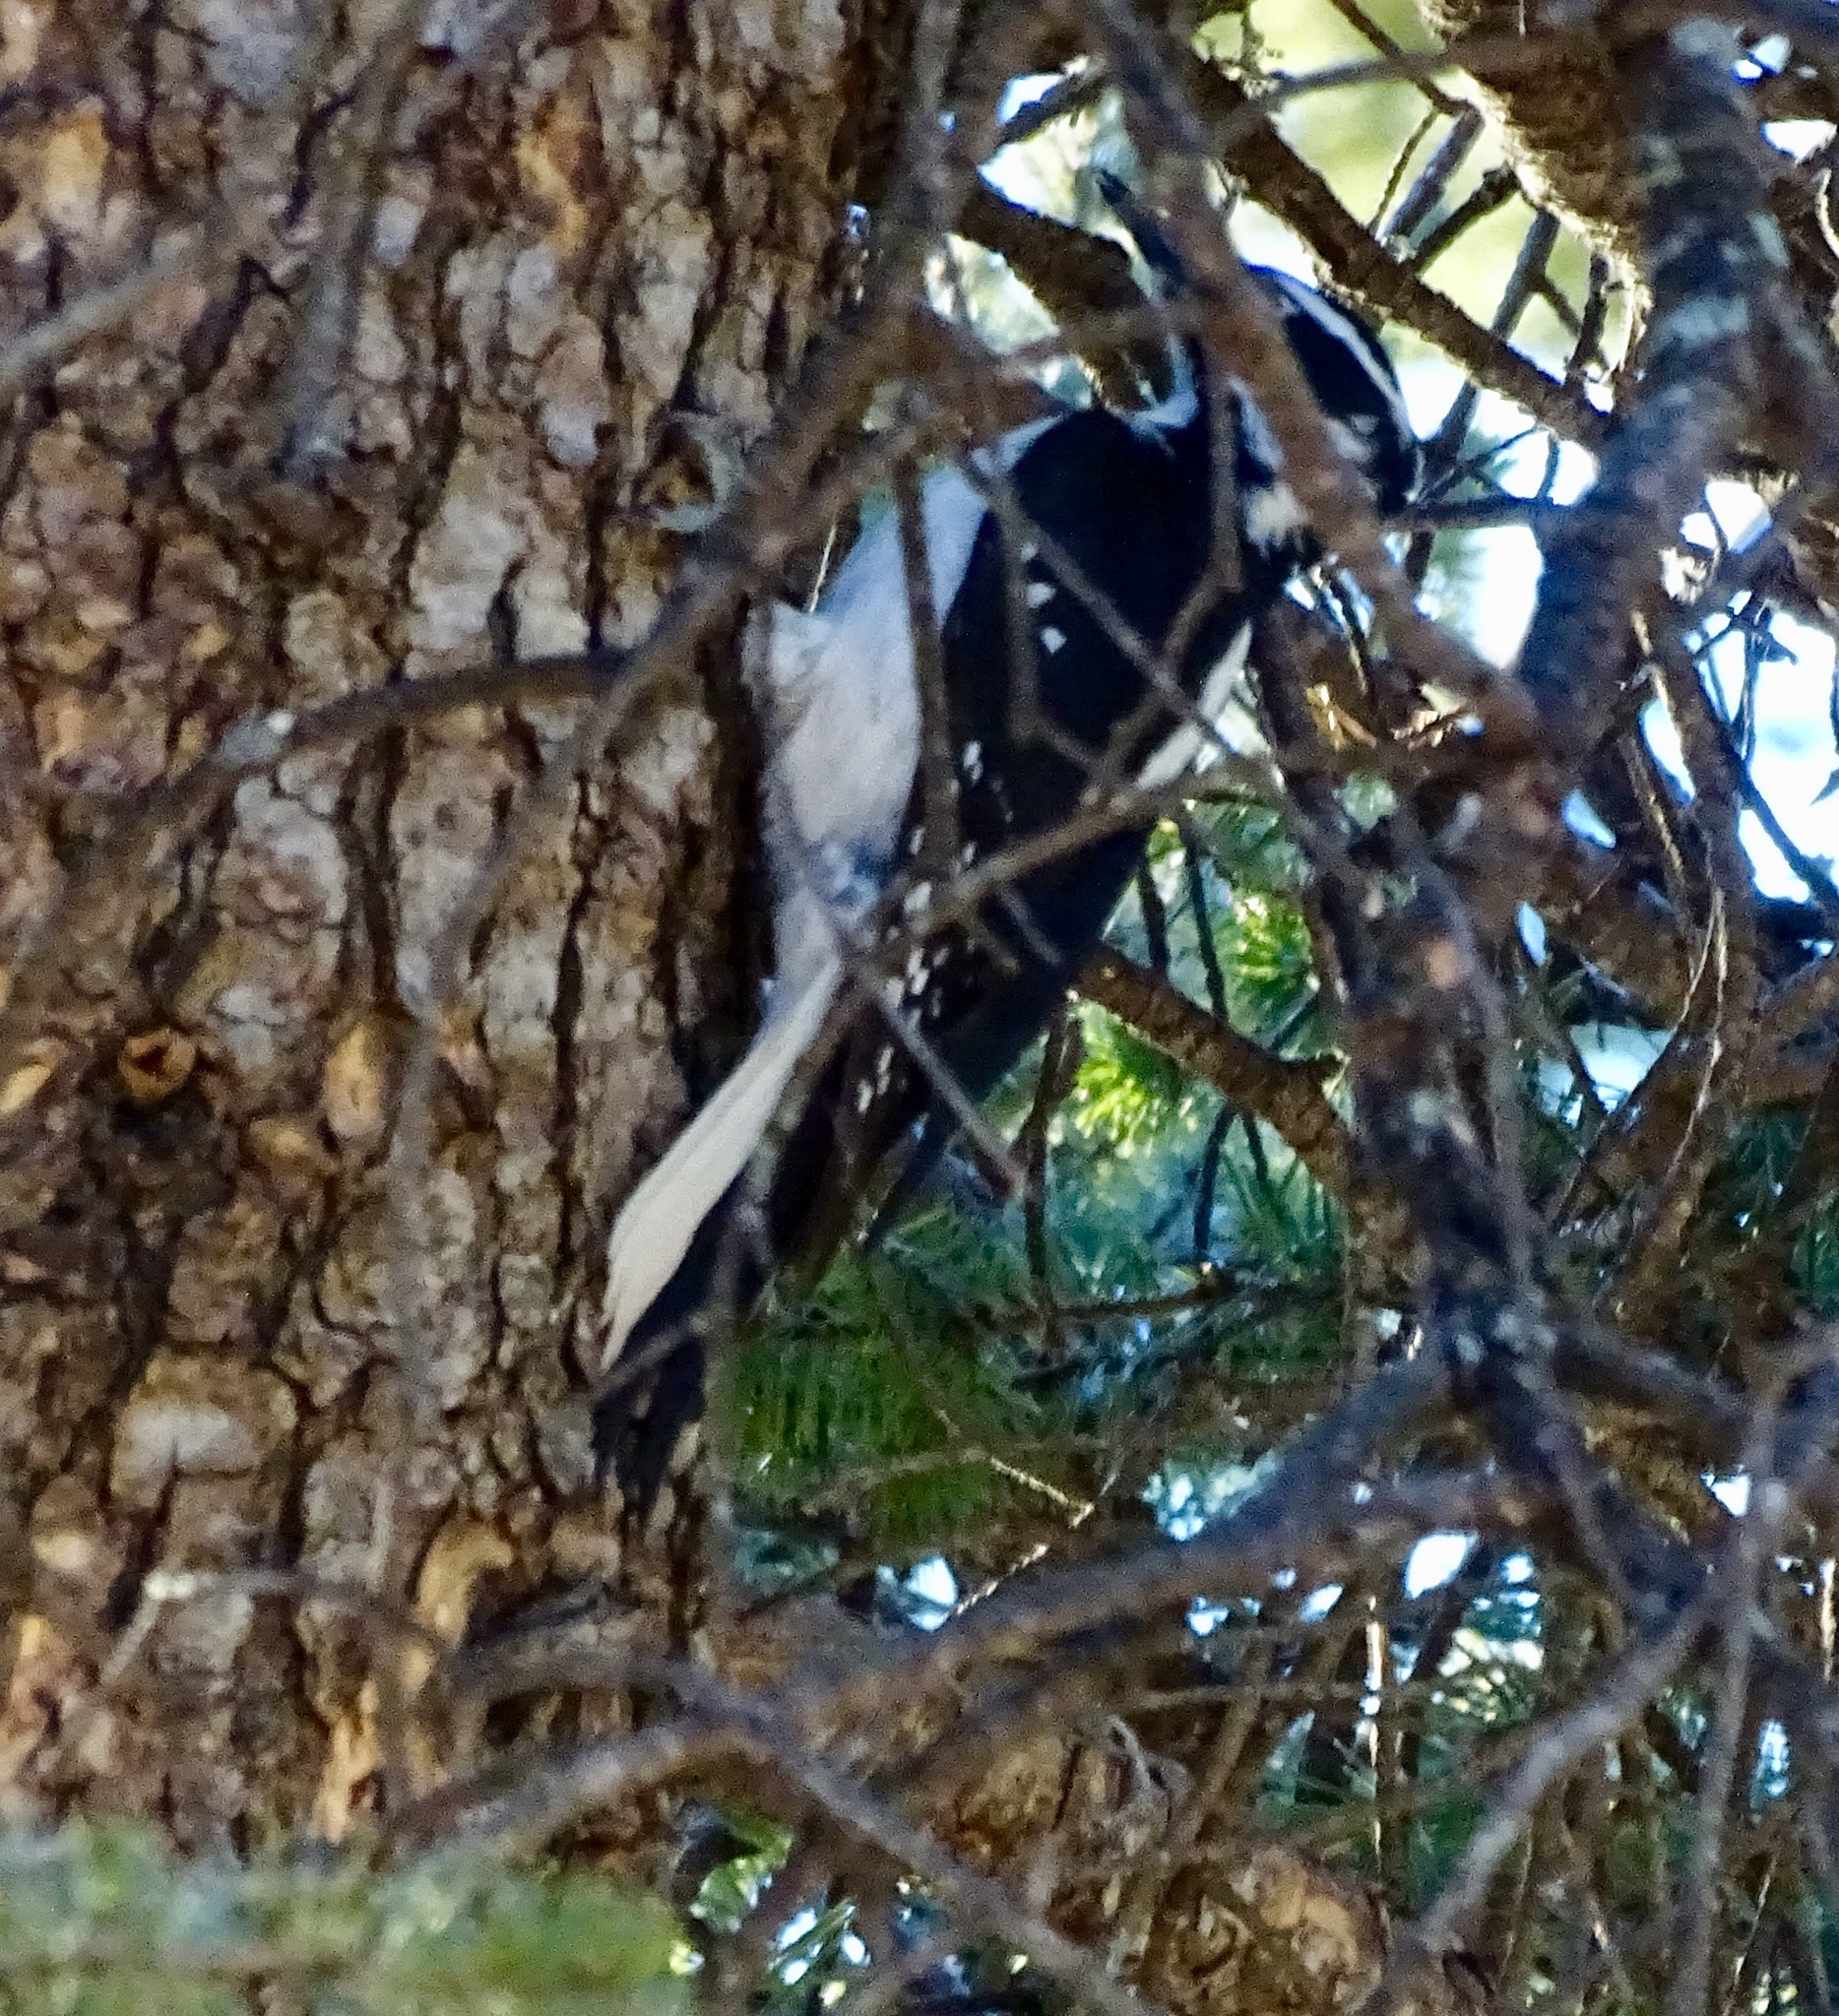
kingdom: Animalia
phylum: Chordata
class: Aves
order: Piciformes
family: Picidae
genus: Leuconotopicus
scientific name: Leuconotopicus villosus
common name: Hairy woodpecker
